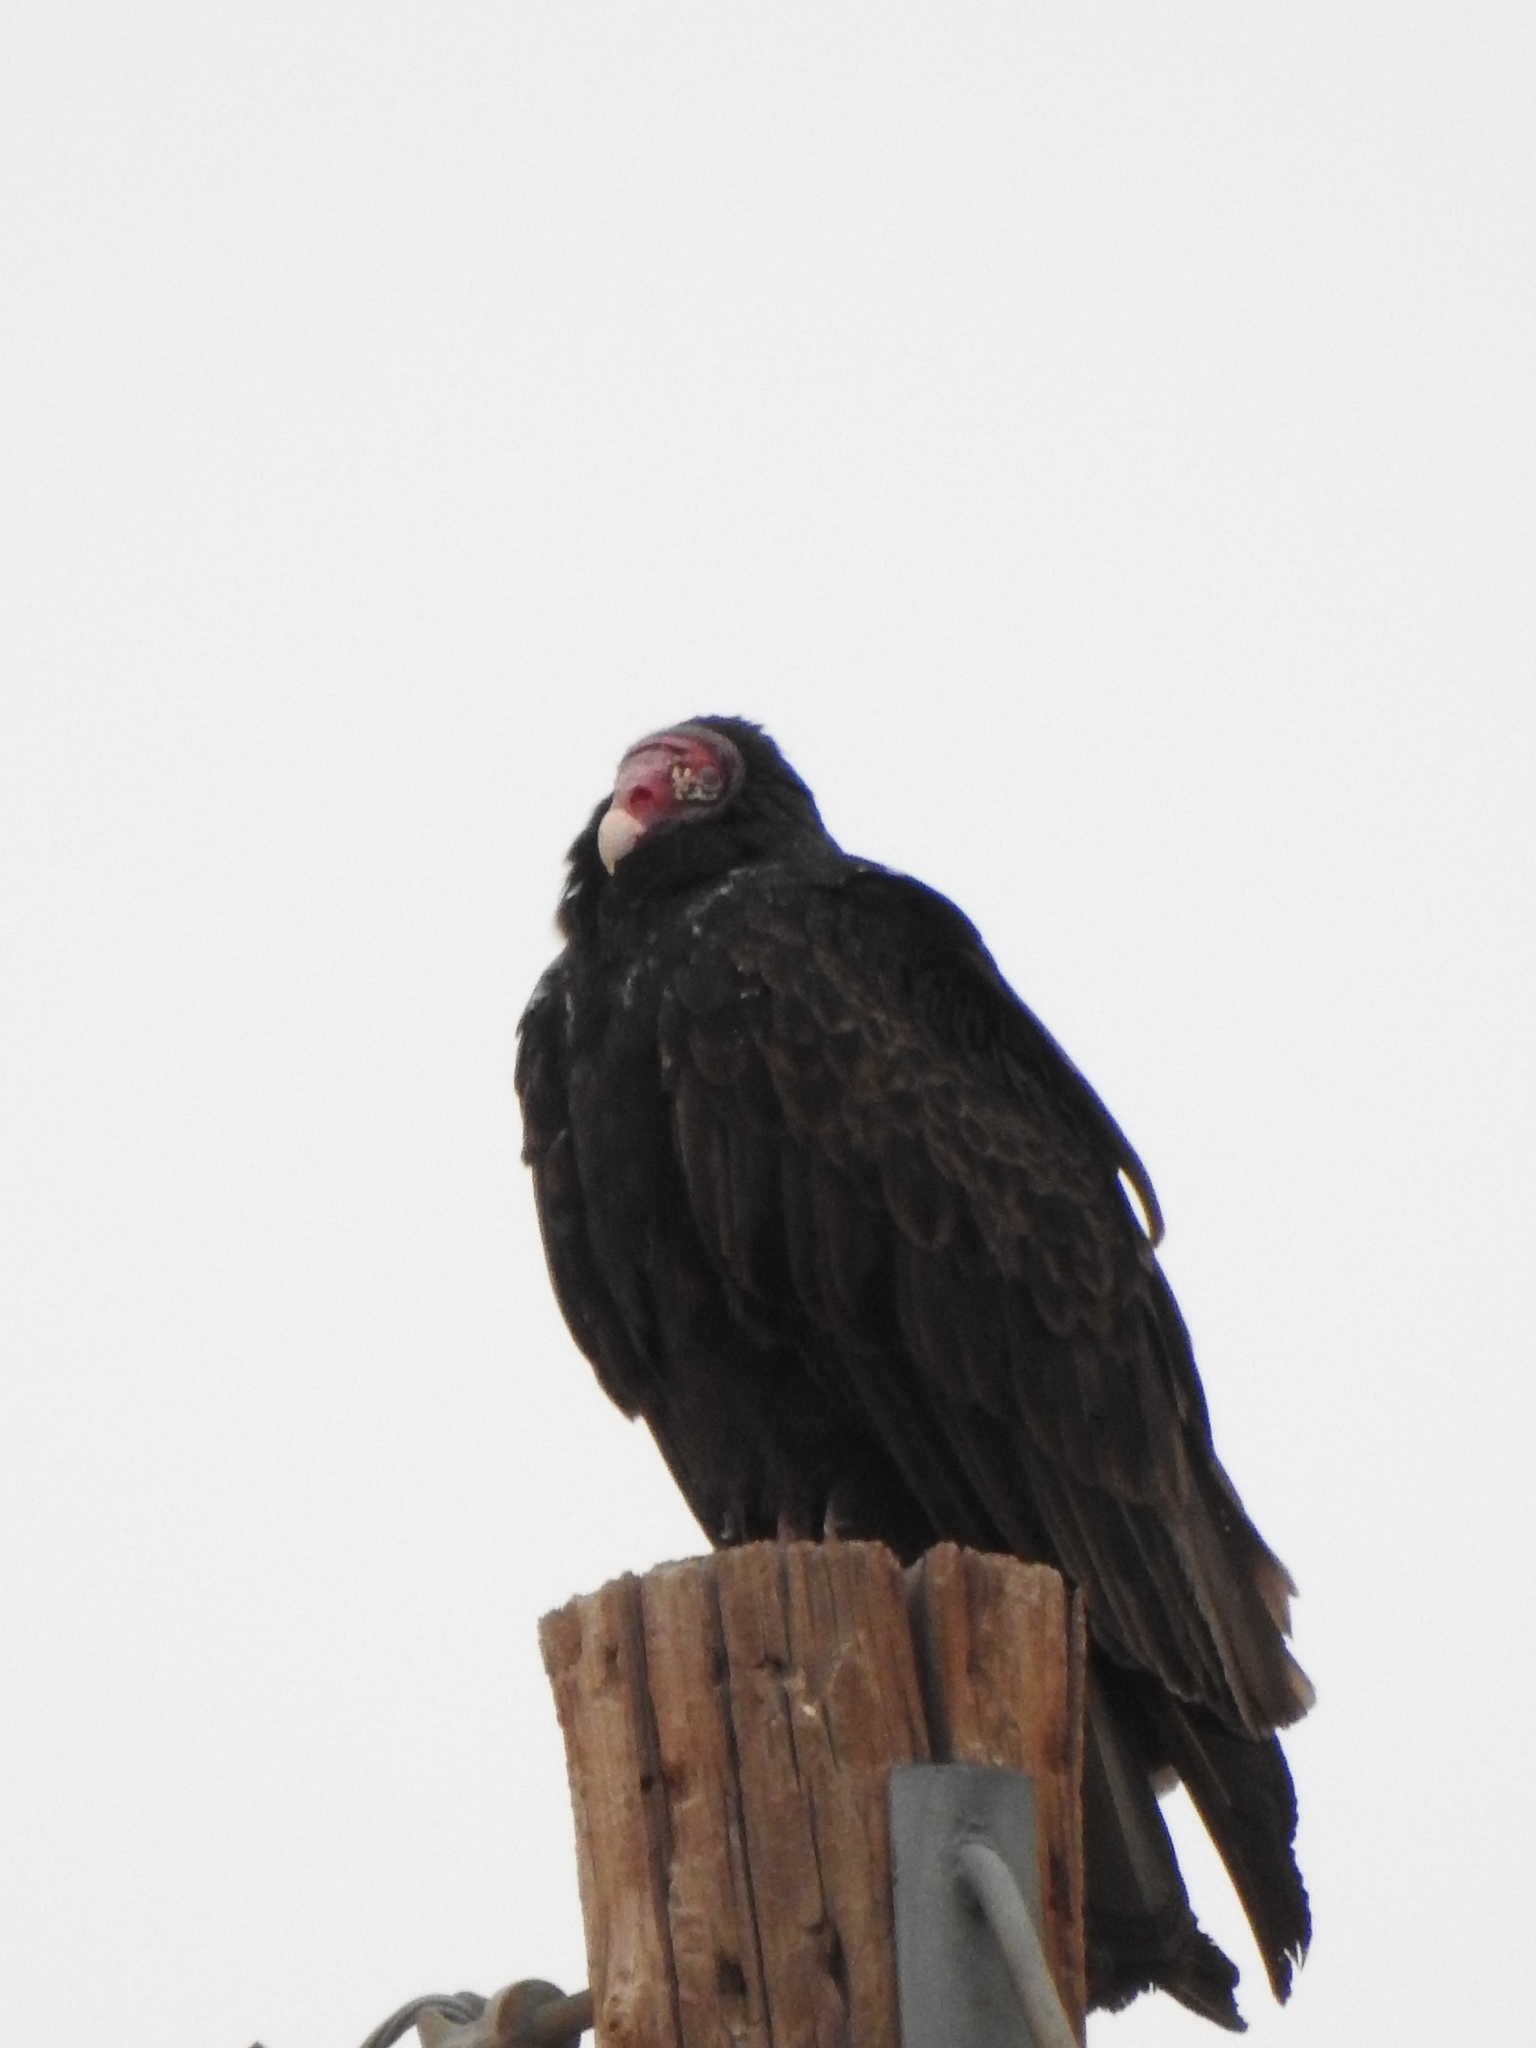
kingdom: Animalia
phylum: Chordata
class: Aves
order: Accipitriformes
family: Cathartidae
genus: Cathartes
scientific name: Cathartes aura
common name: Turkey vulture
